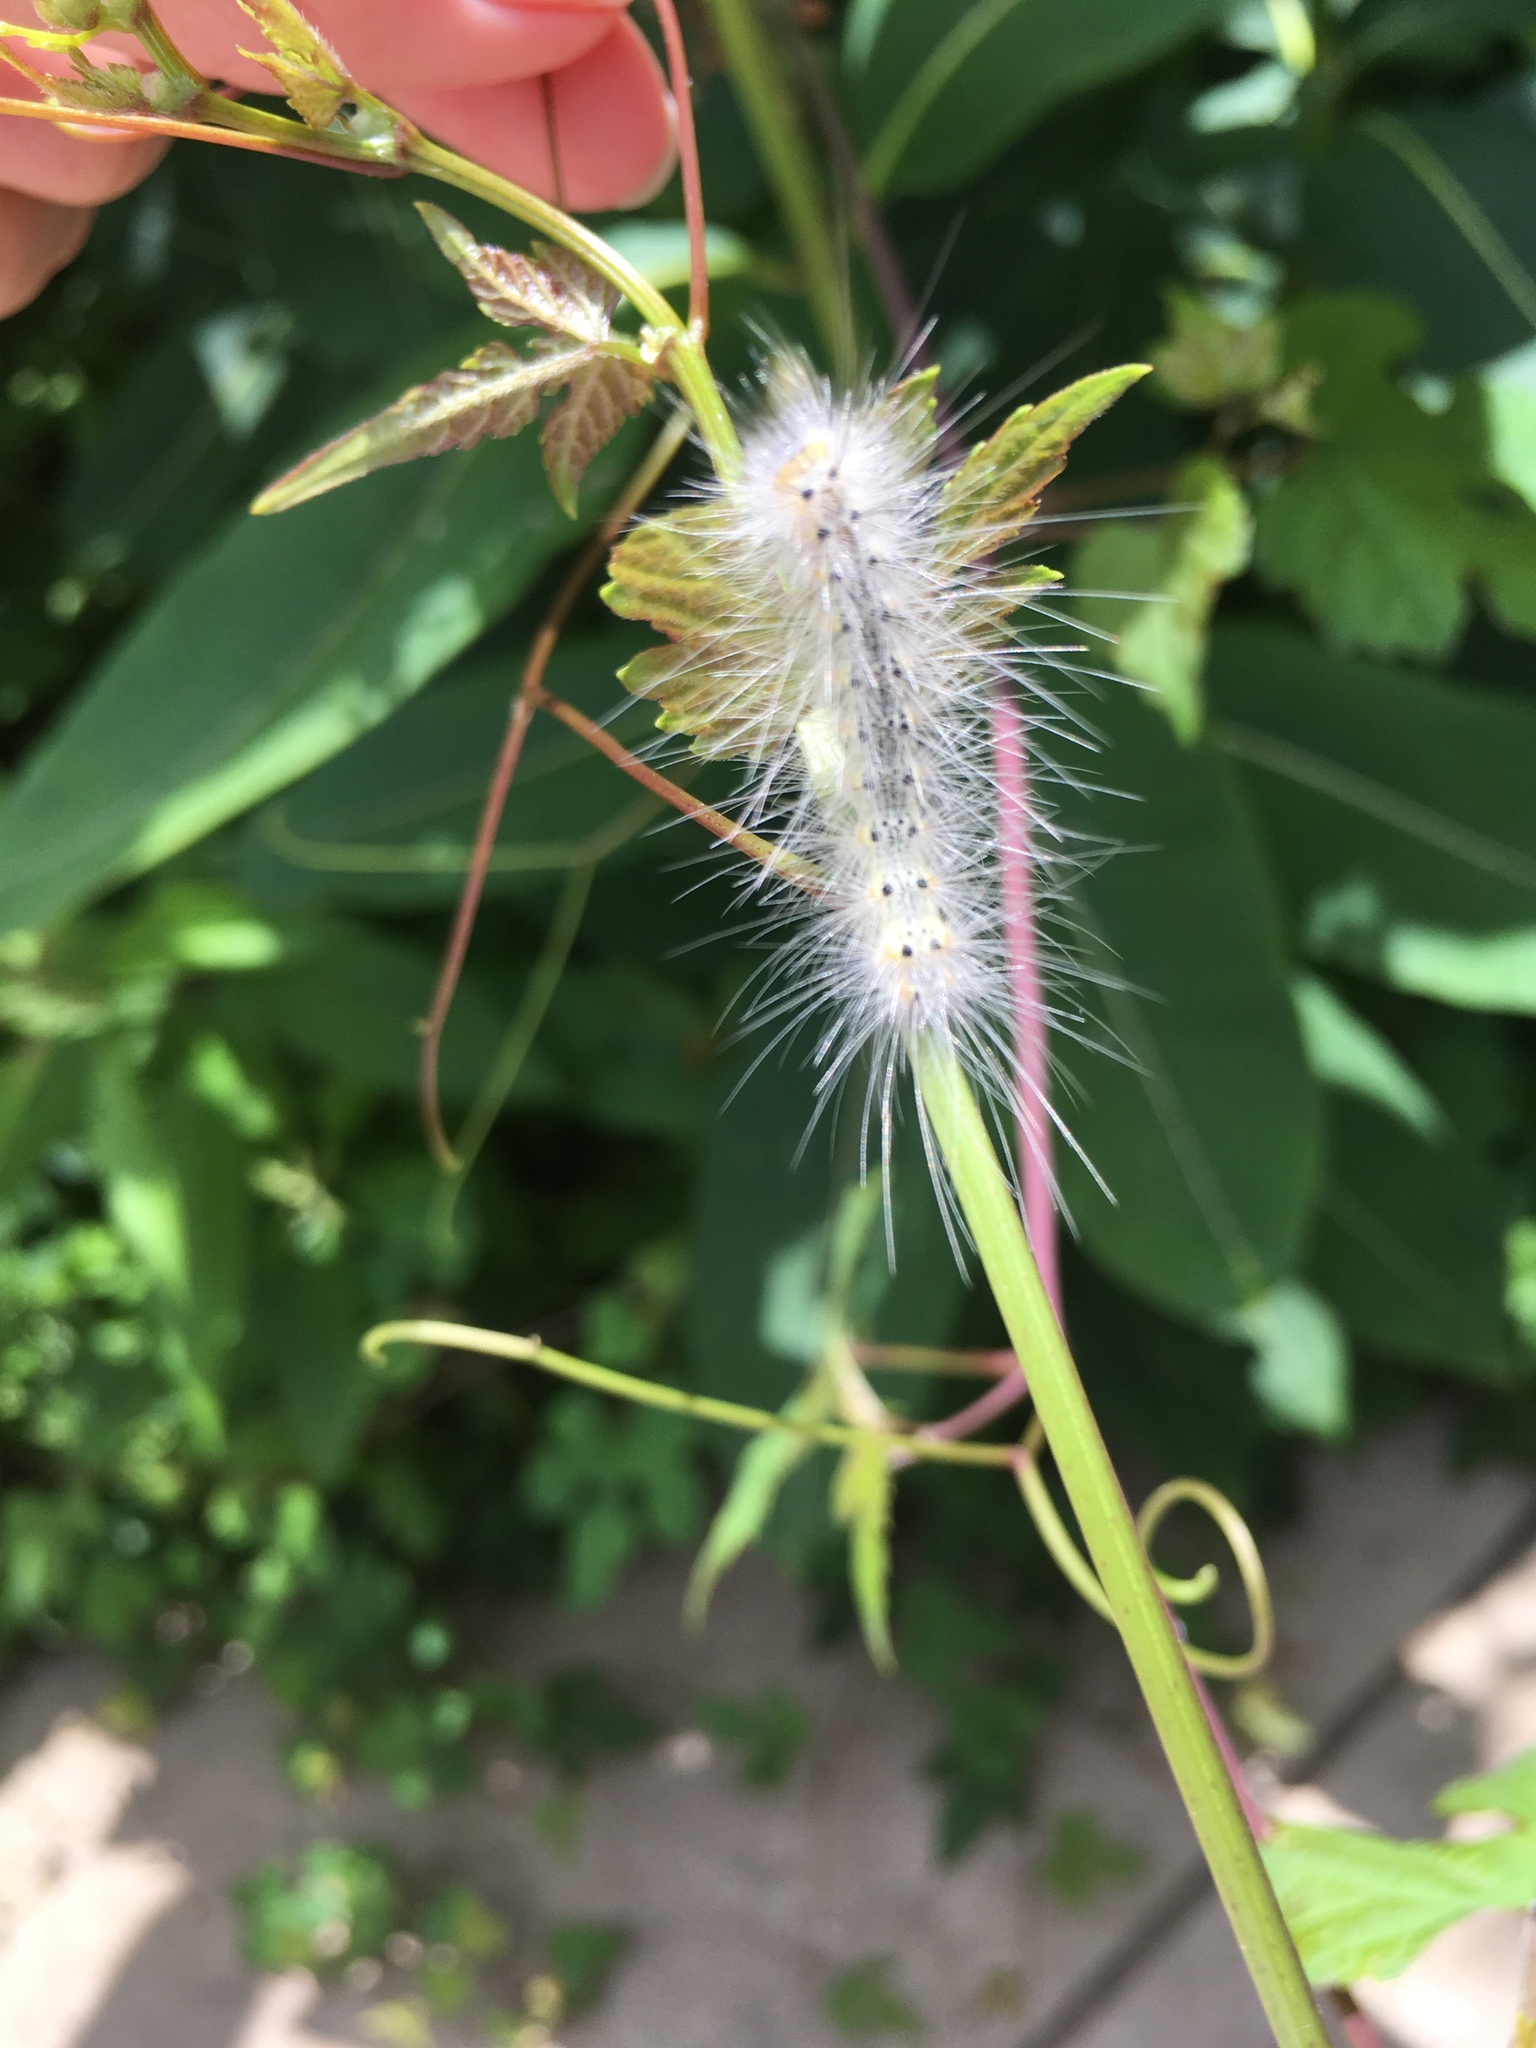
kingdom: Animalia
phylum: Arthropoda
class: Insecta
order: Lepidoptera
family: Erebidae
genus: Hyphantria
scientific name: Hyphantria cunea
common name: American white moth
